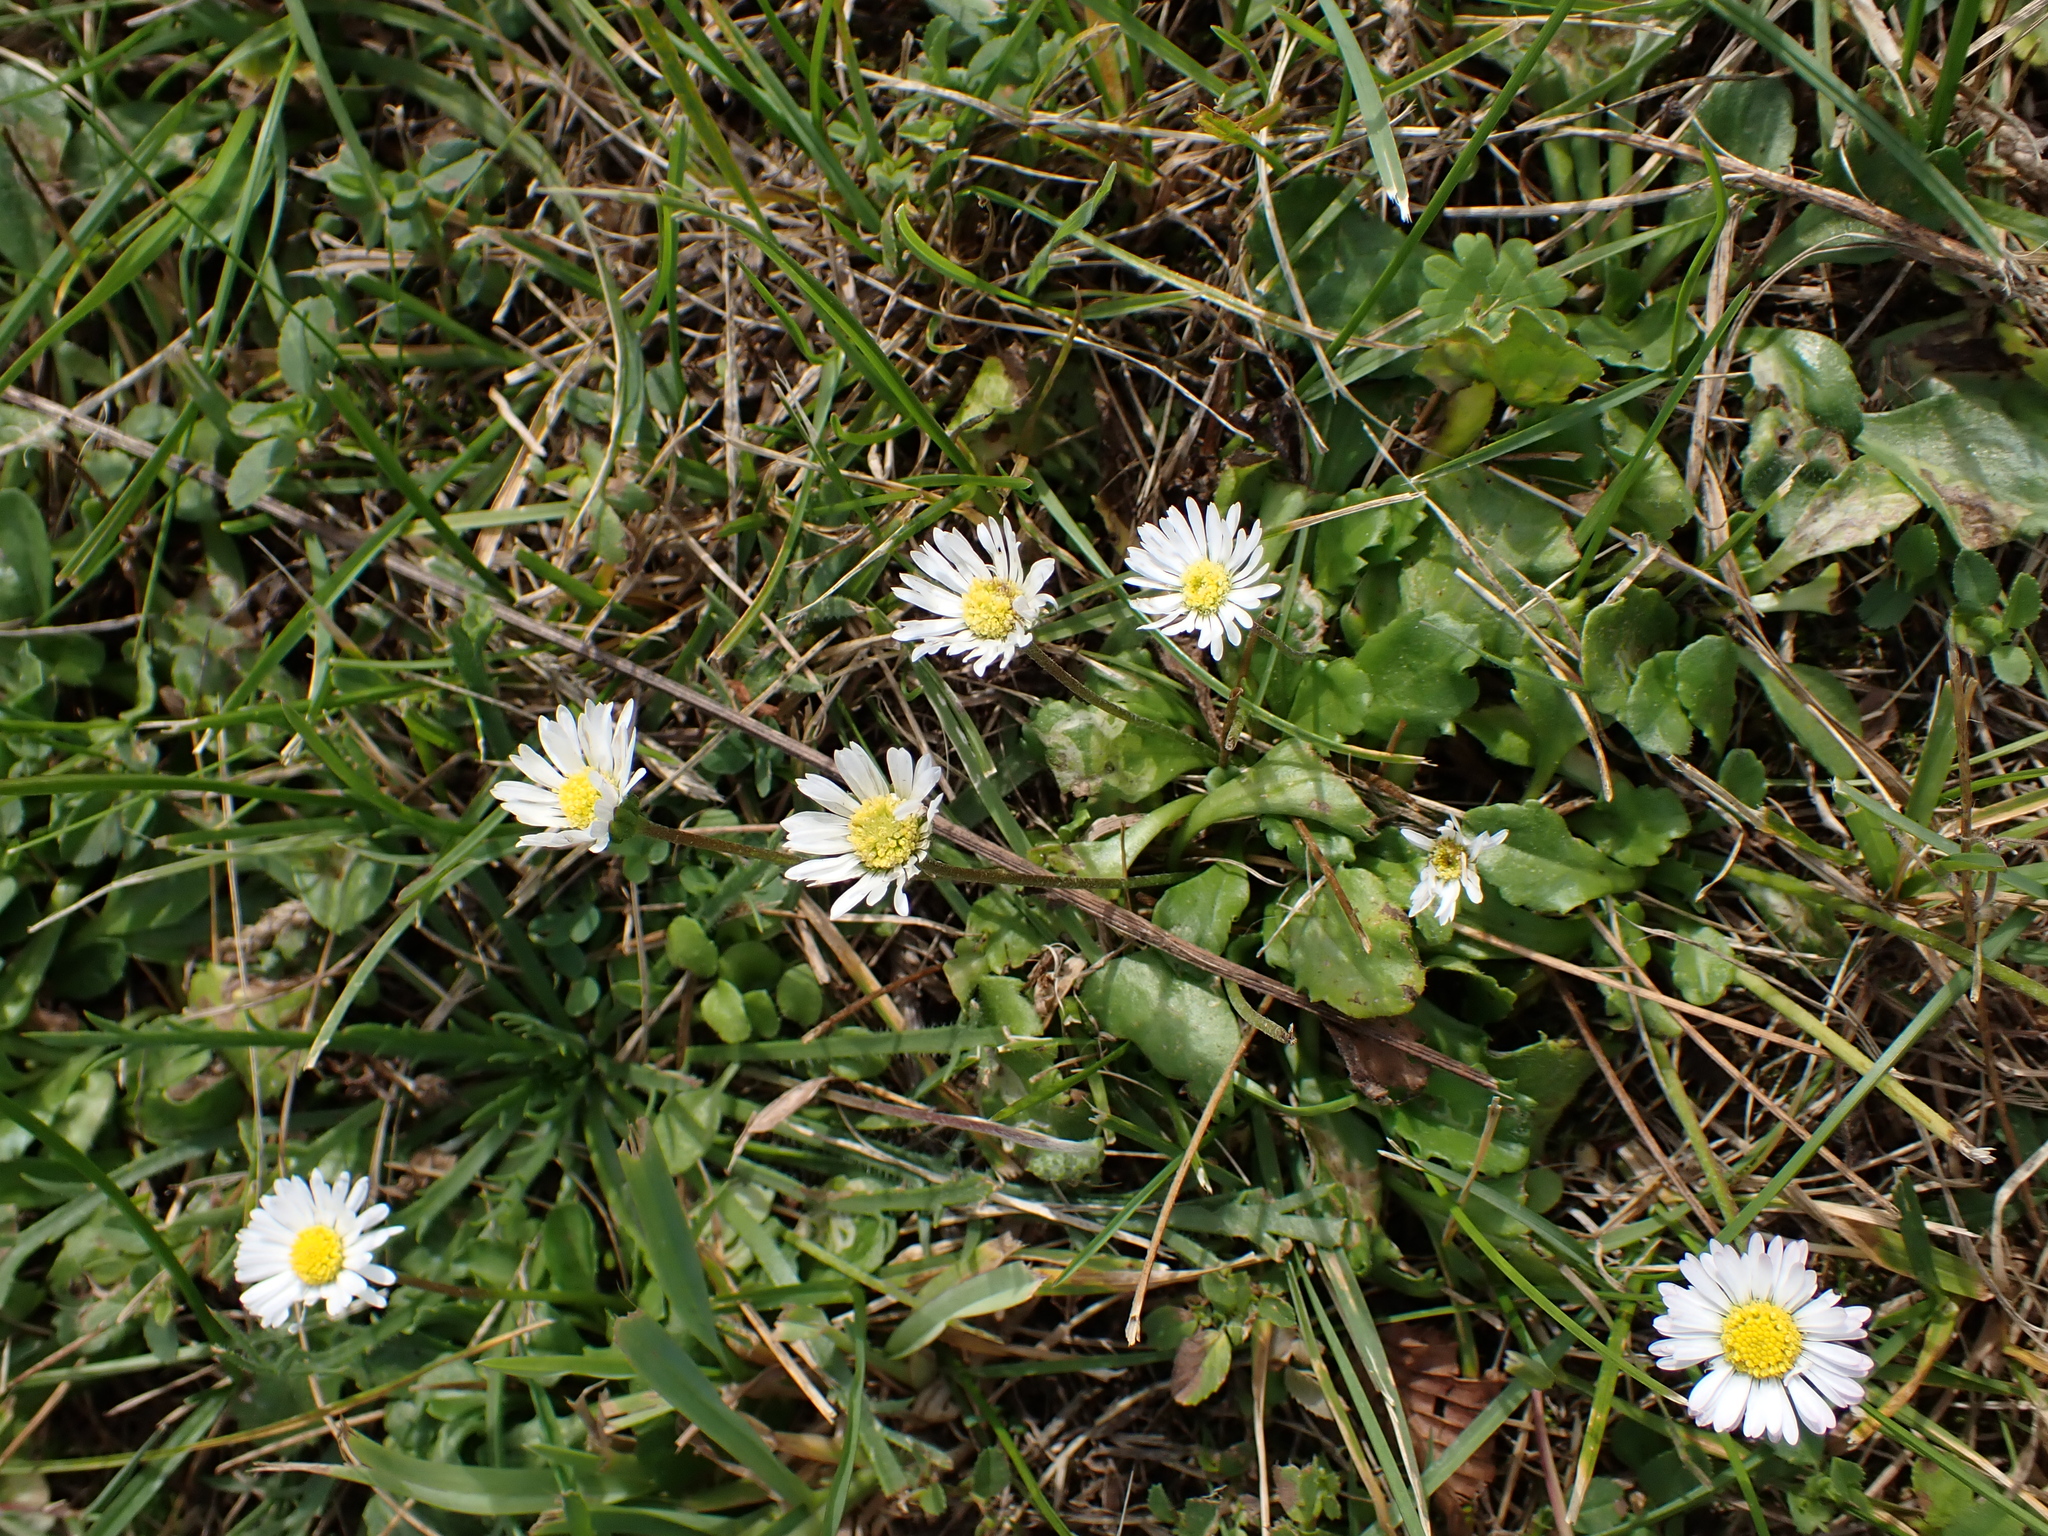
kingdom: Plantae
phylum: Tracheophyta
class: Magnoliopsida
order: Asterales
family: Asteraceae
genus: Bellis
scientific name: Bellis perennis
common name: Lawndaisy
